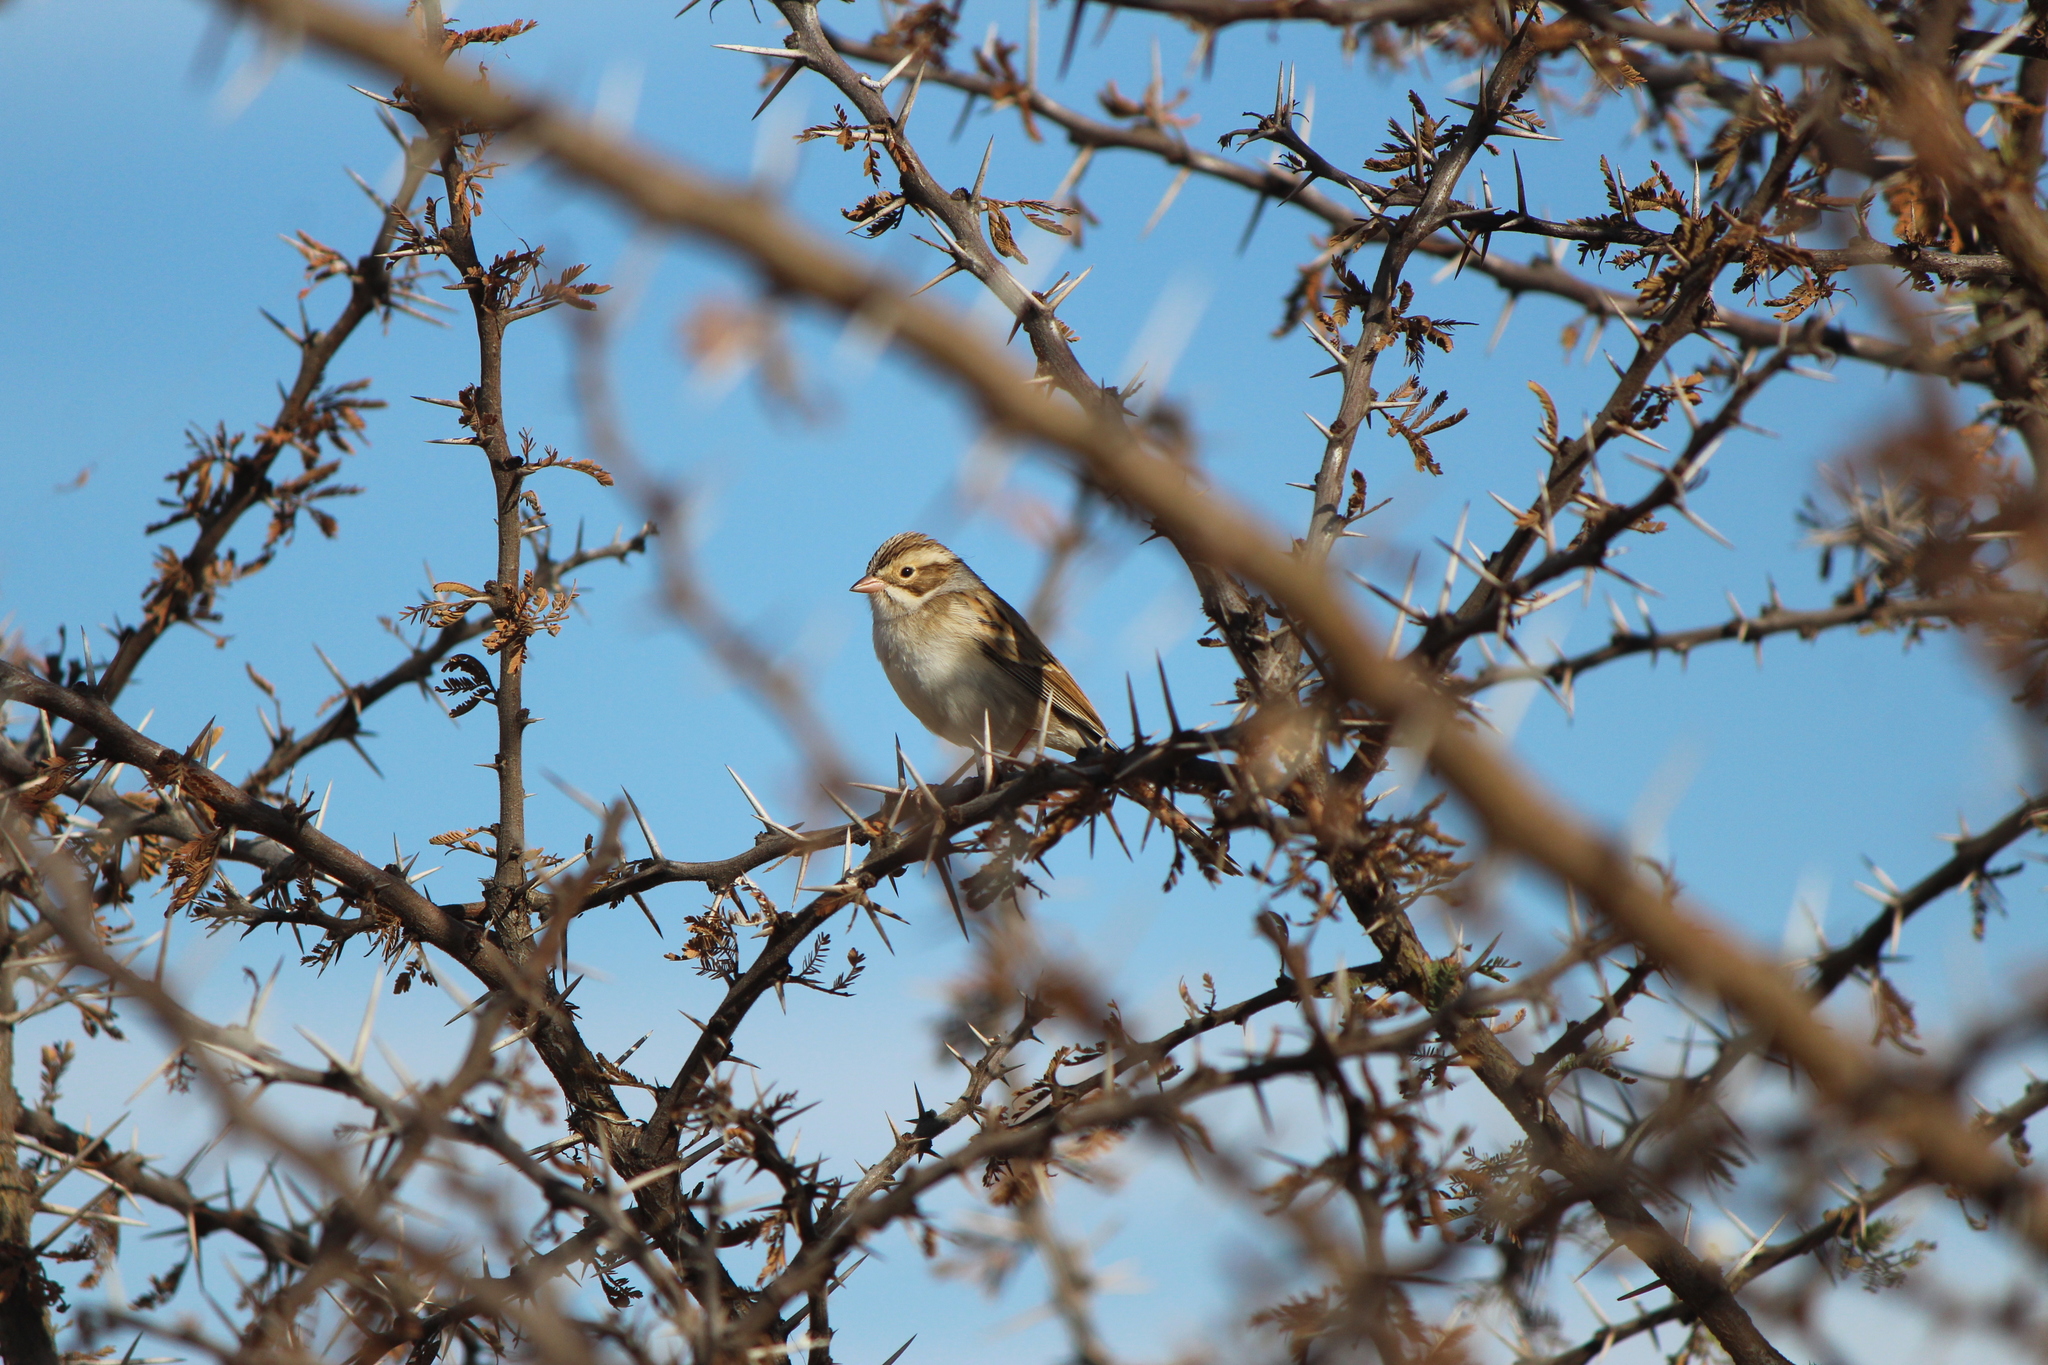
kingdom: Animalia
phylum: Chordata
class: Aves
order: Passeriformes
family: Passerellidae
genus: Spizella
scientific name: Spizella pallida
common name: Clay-colored sparrow
